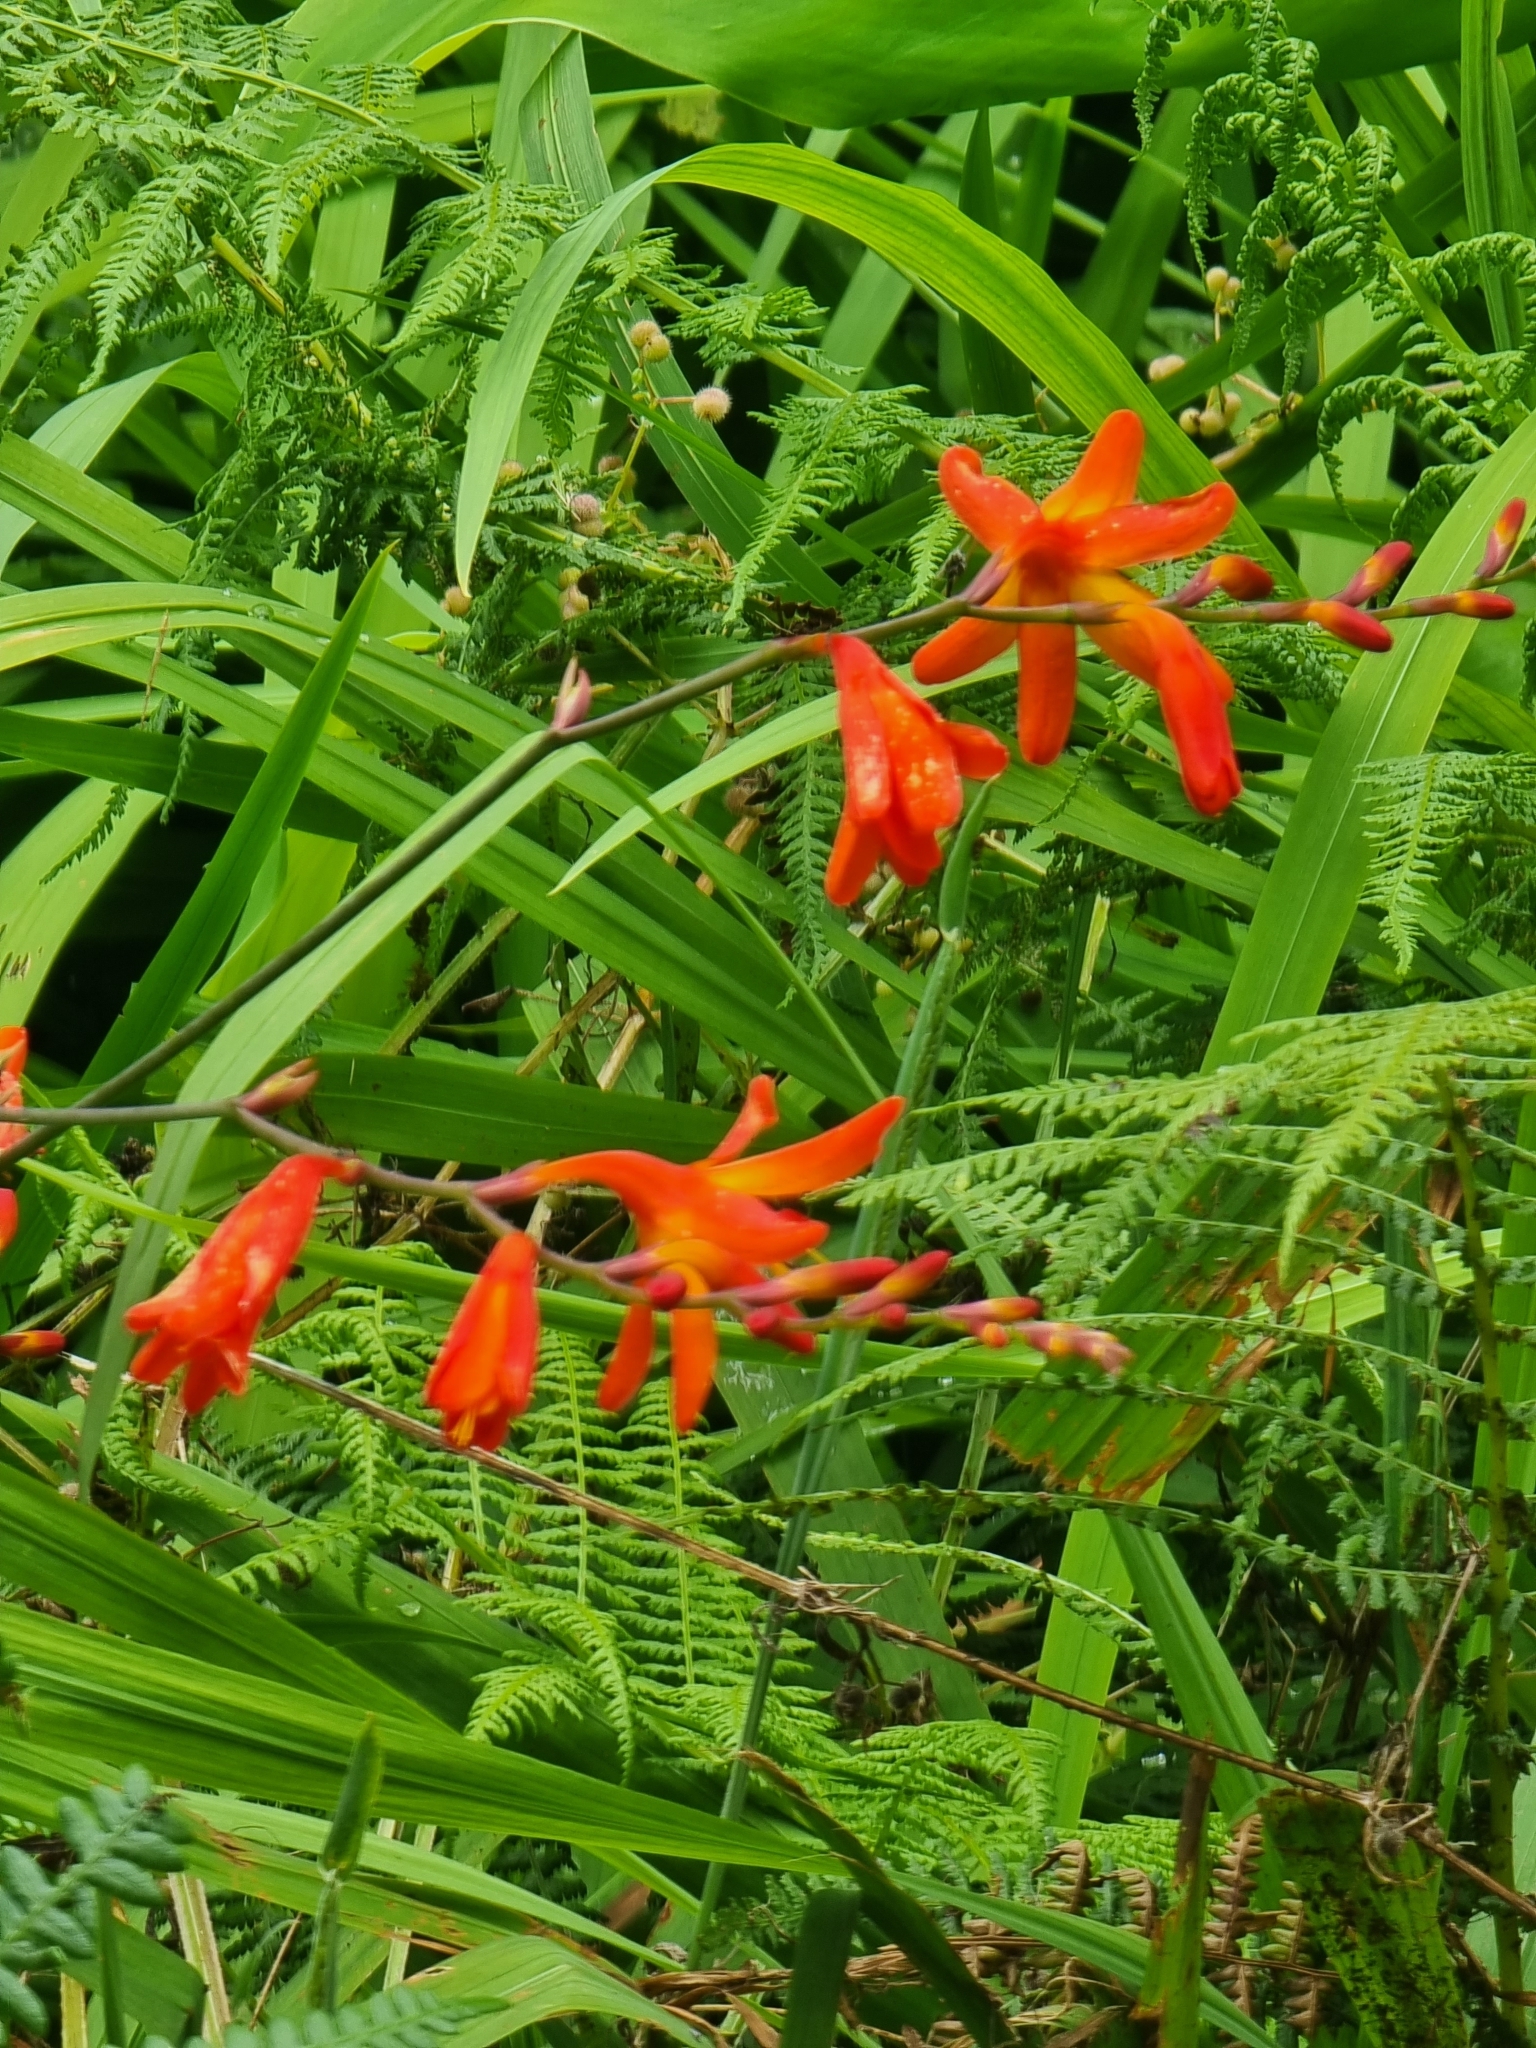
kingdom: Plantae
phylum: Tracheophyta
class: Liliopsida
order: Asparagales
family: Iridaceae
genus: Crocosmia
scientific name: Crocosmia crocosmiiflora
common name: Montbretia
